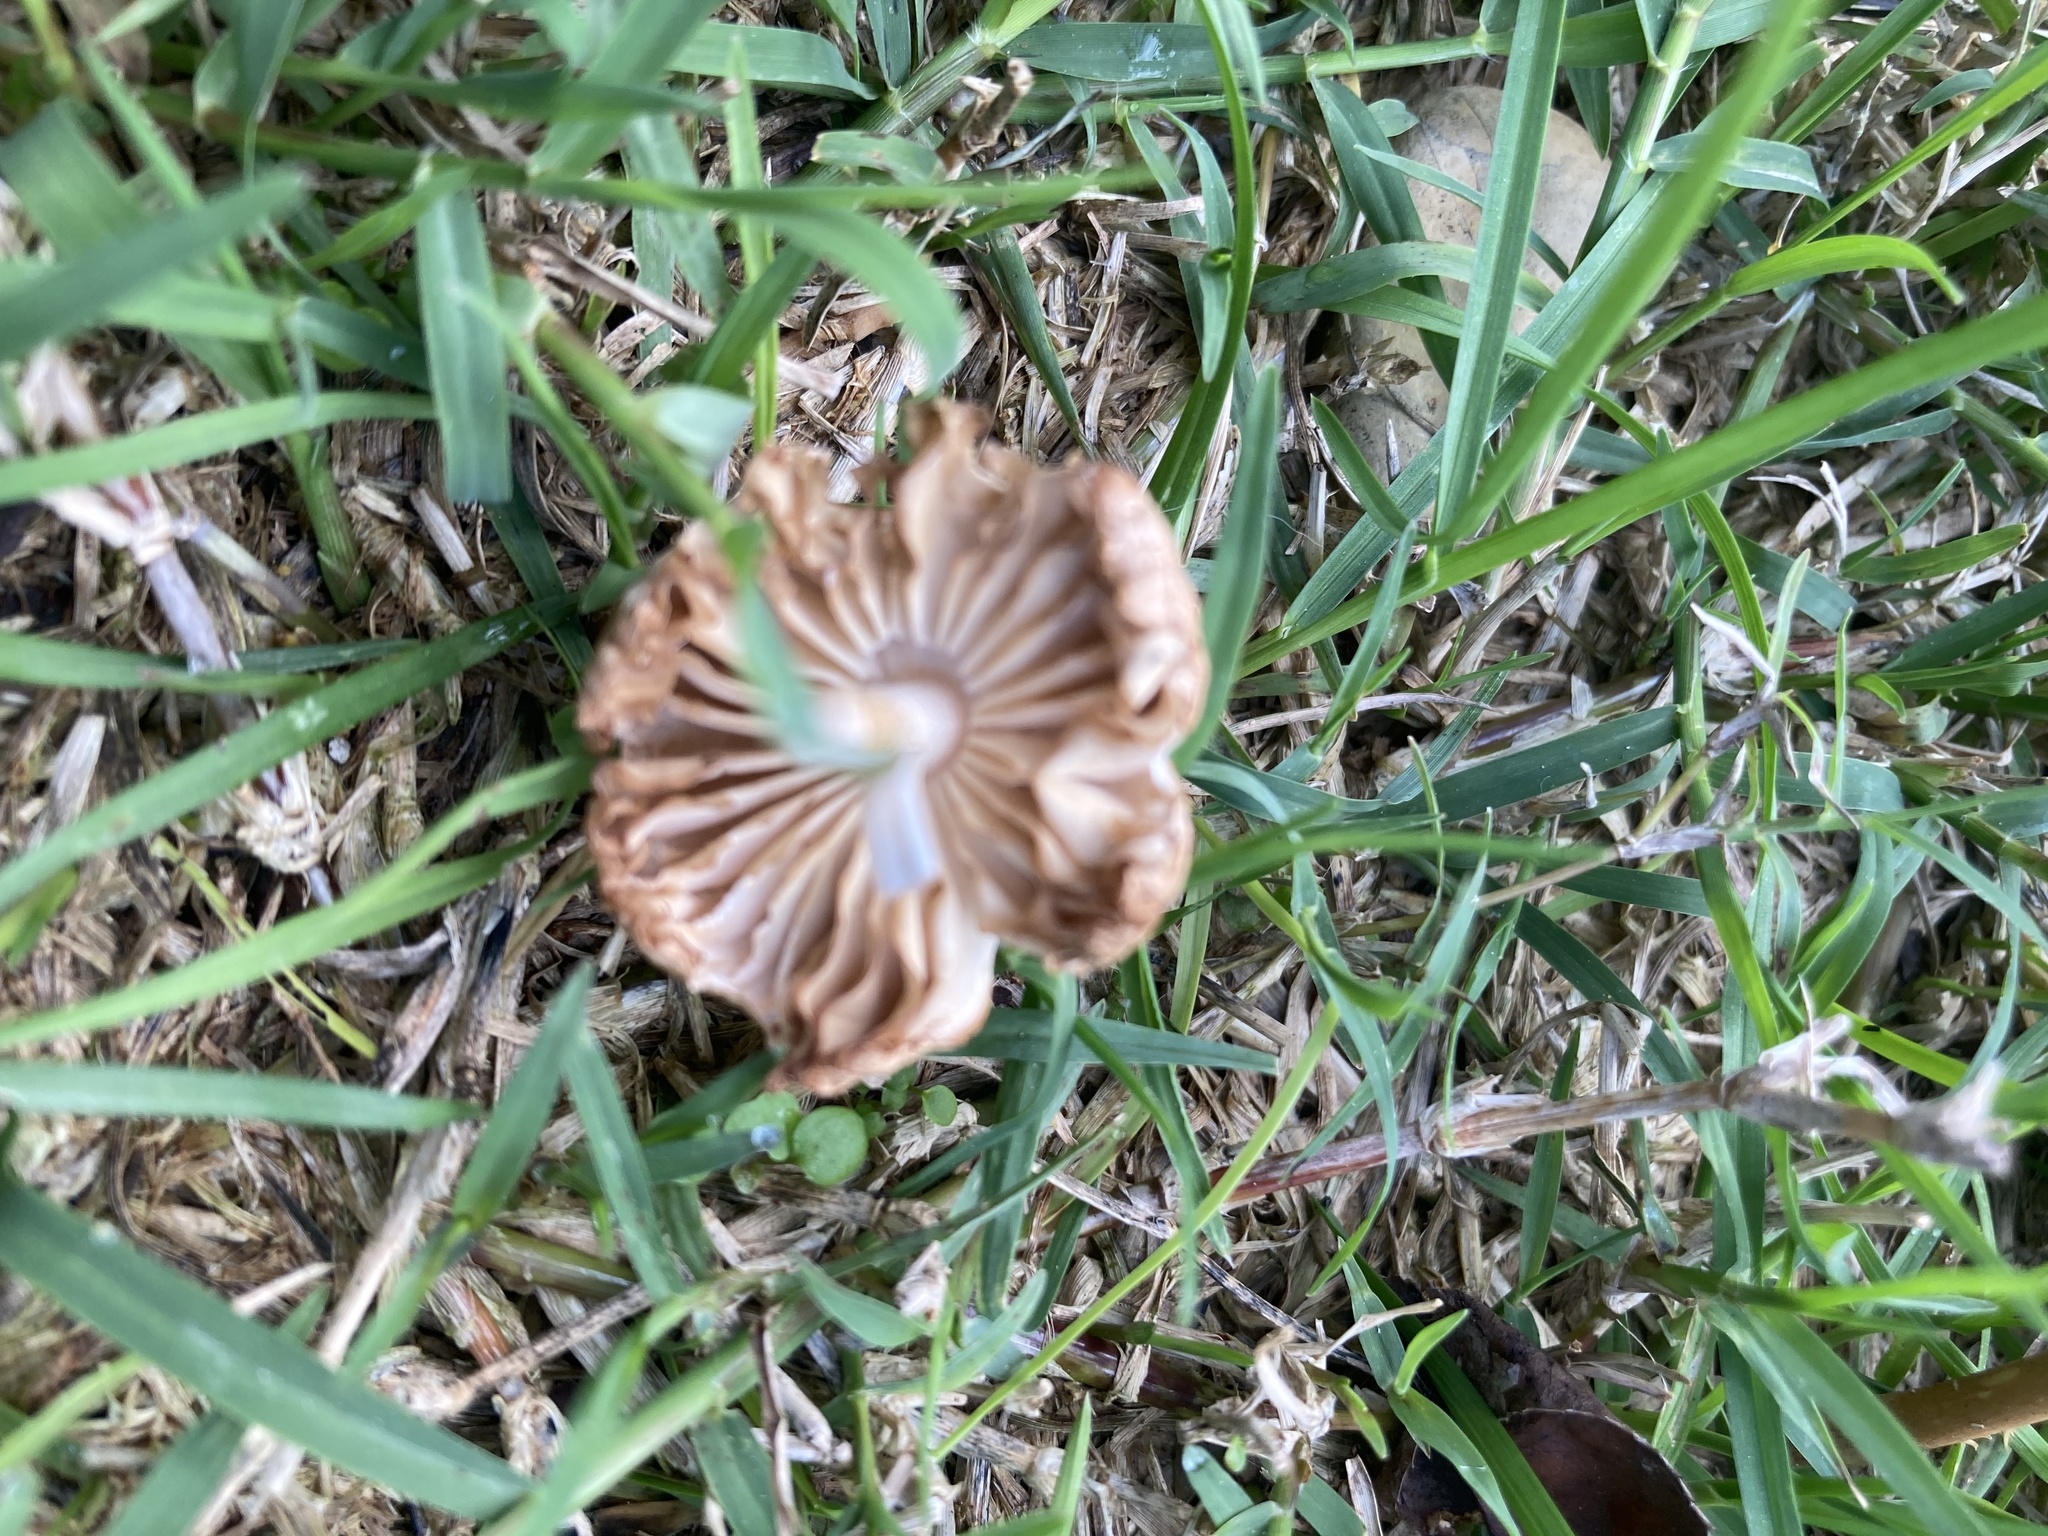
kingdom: Fungi
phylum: Basidiomycota
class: Agaricomycetes
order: Agaricales
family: Marasmiaceae
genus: Marasmius
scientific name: Marasmius oreades
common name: Fairy ring champignon
